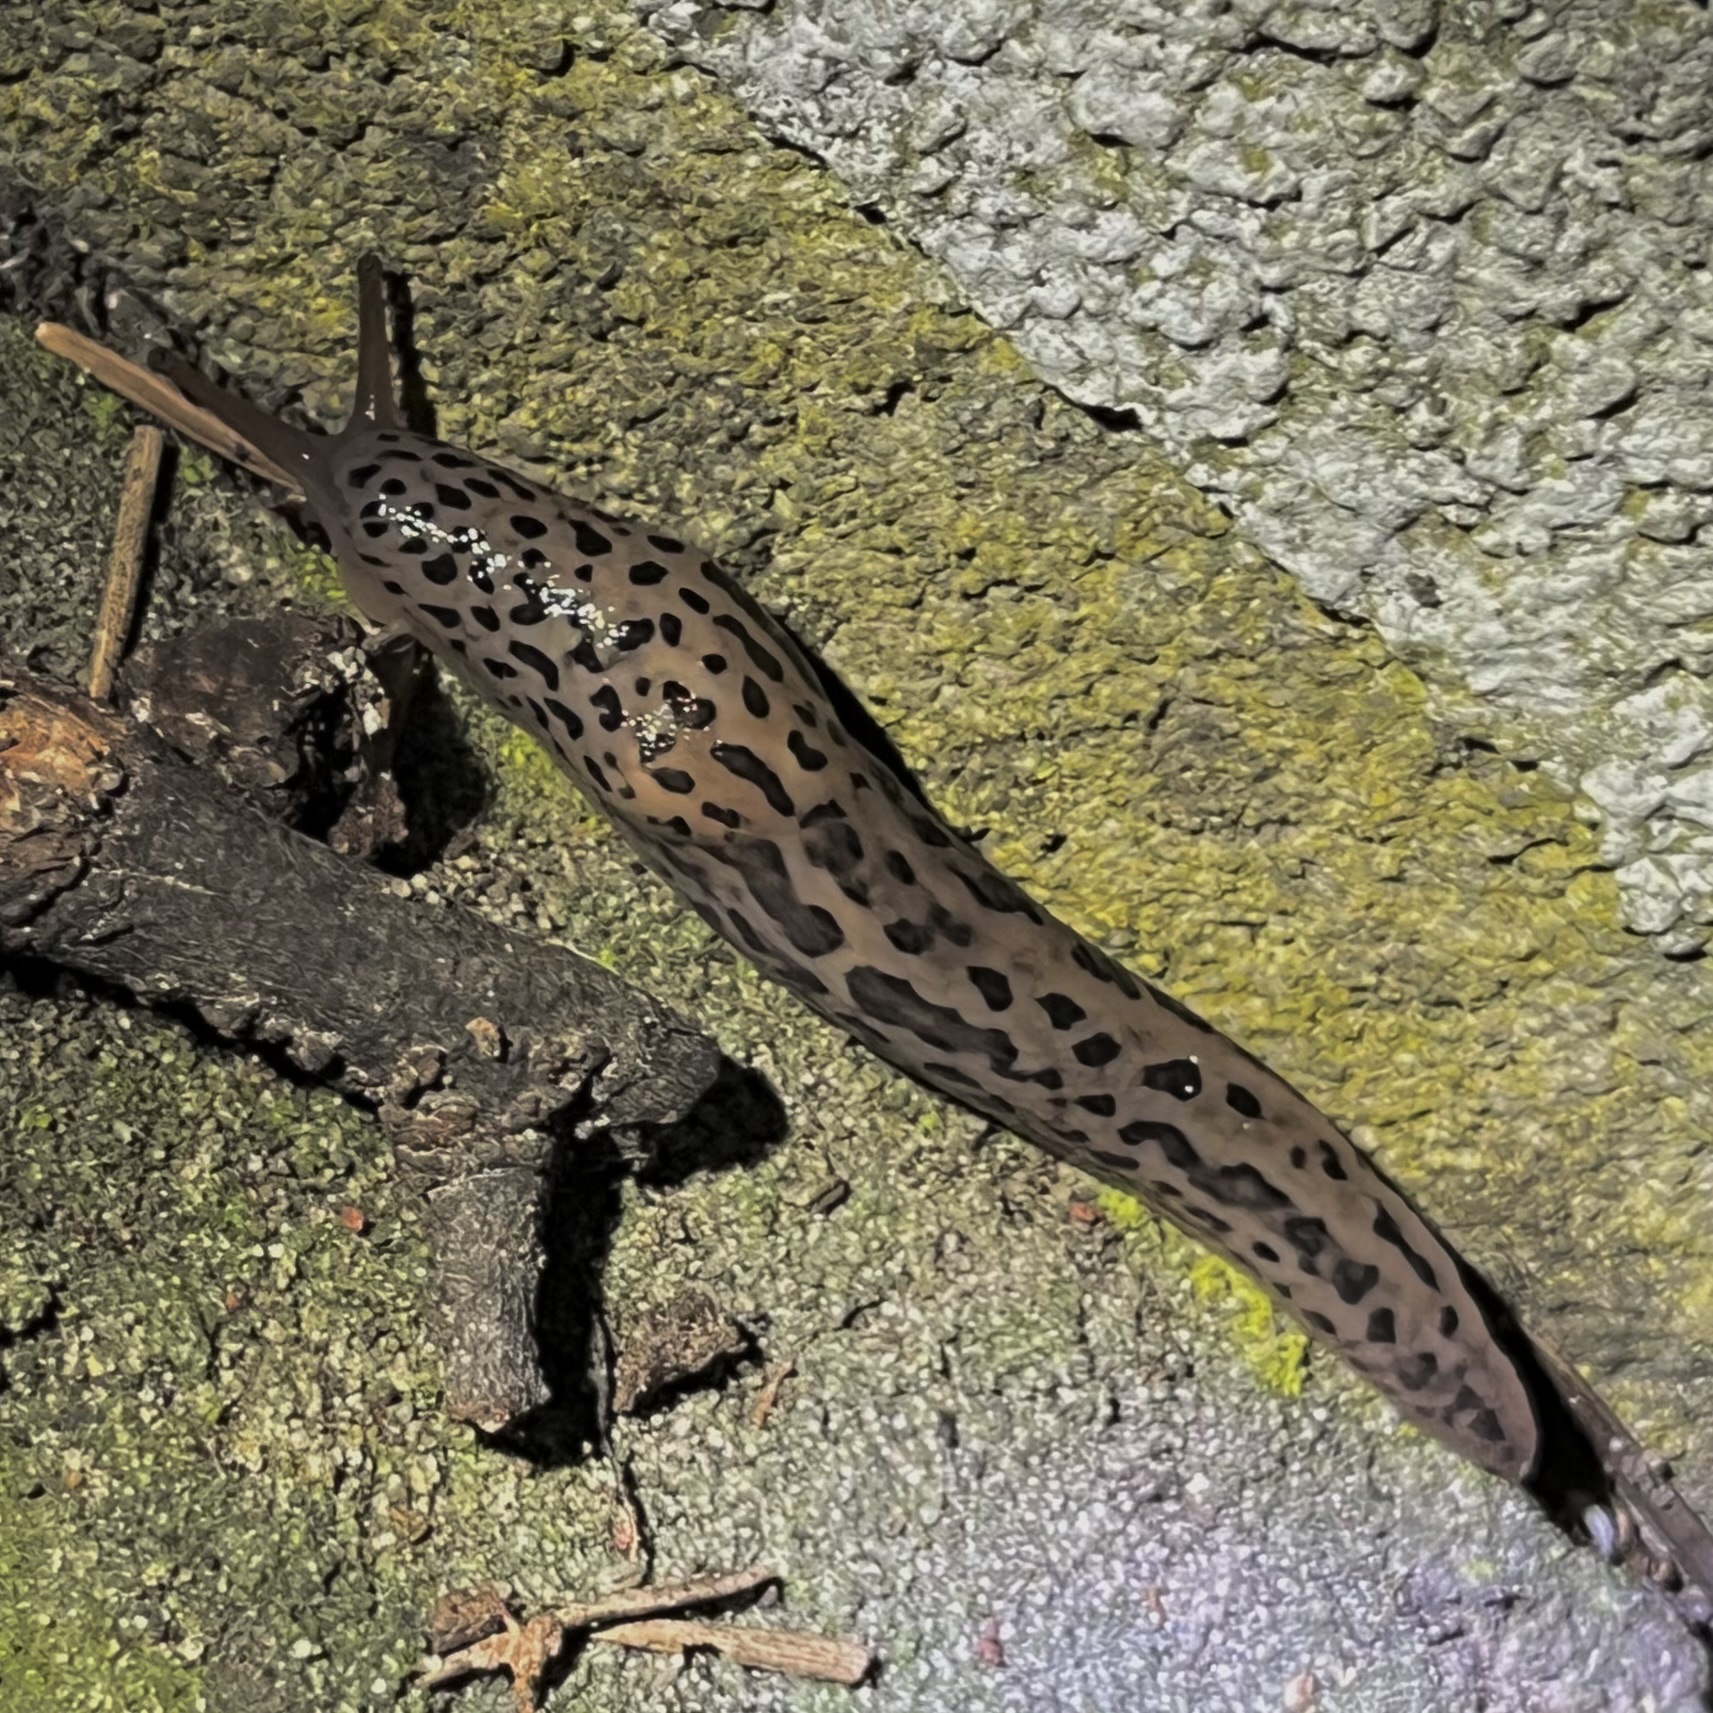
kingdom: Animalia
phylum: Mollusca
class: Gastropoda
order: Stylommatophora
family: Limacidae
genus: Limax
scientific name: Limax maximus
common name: Great grey slug
